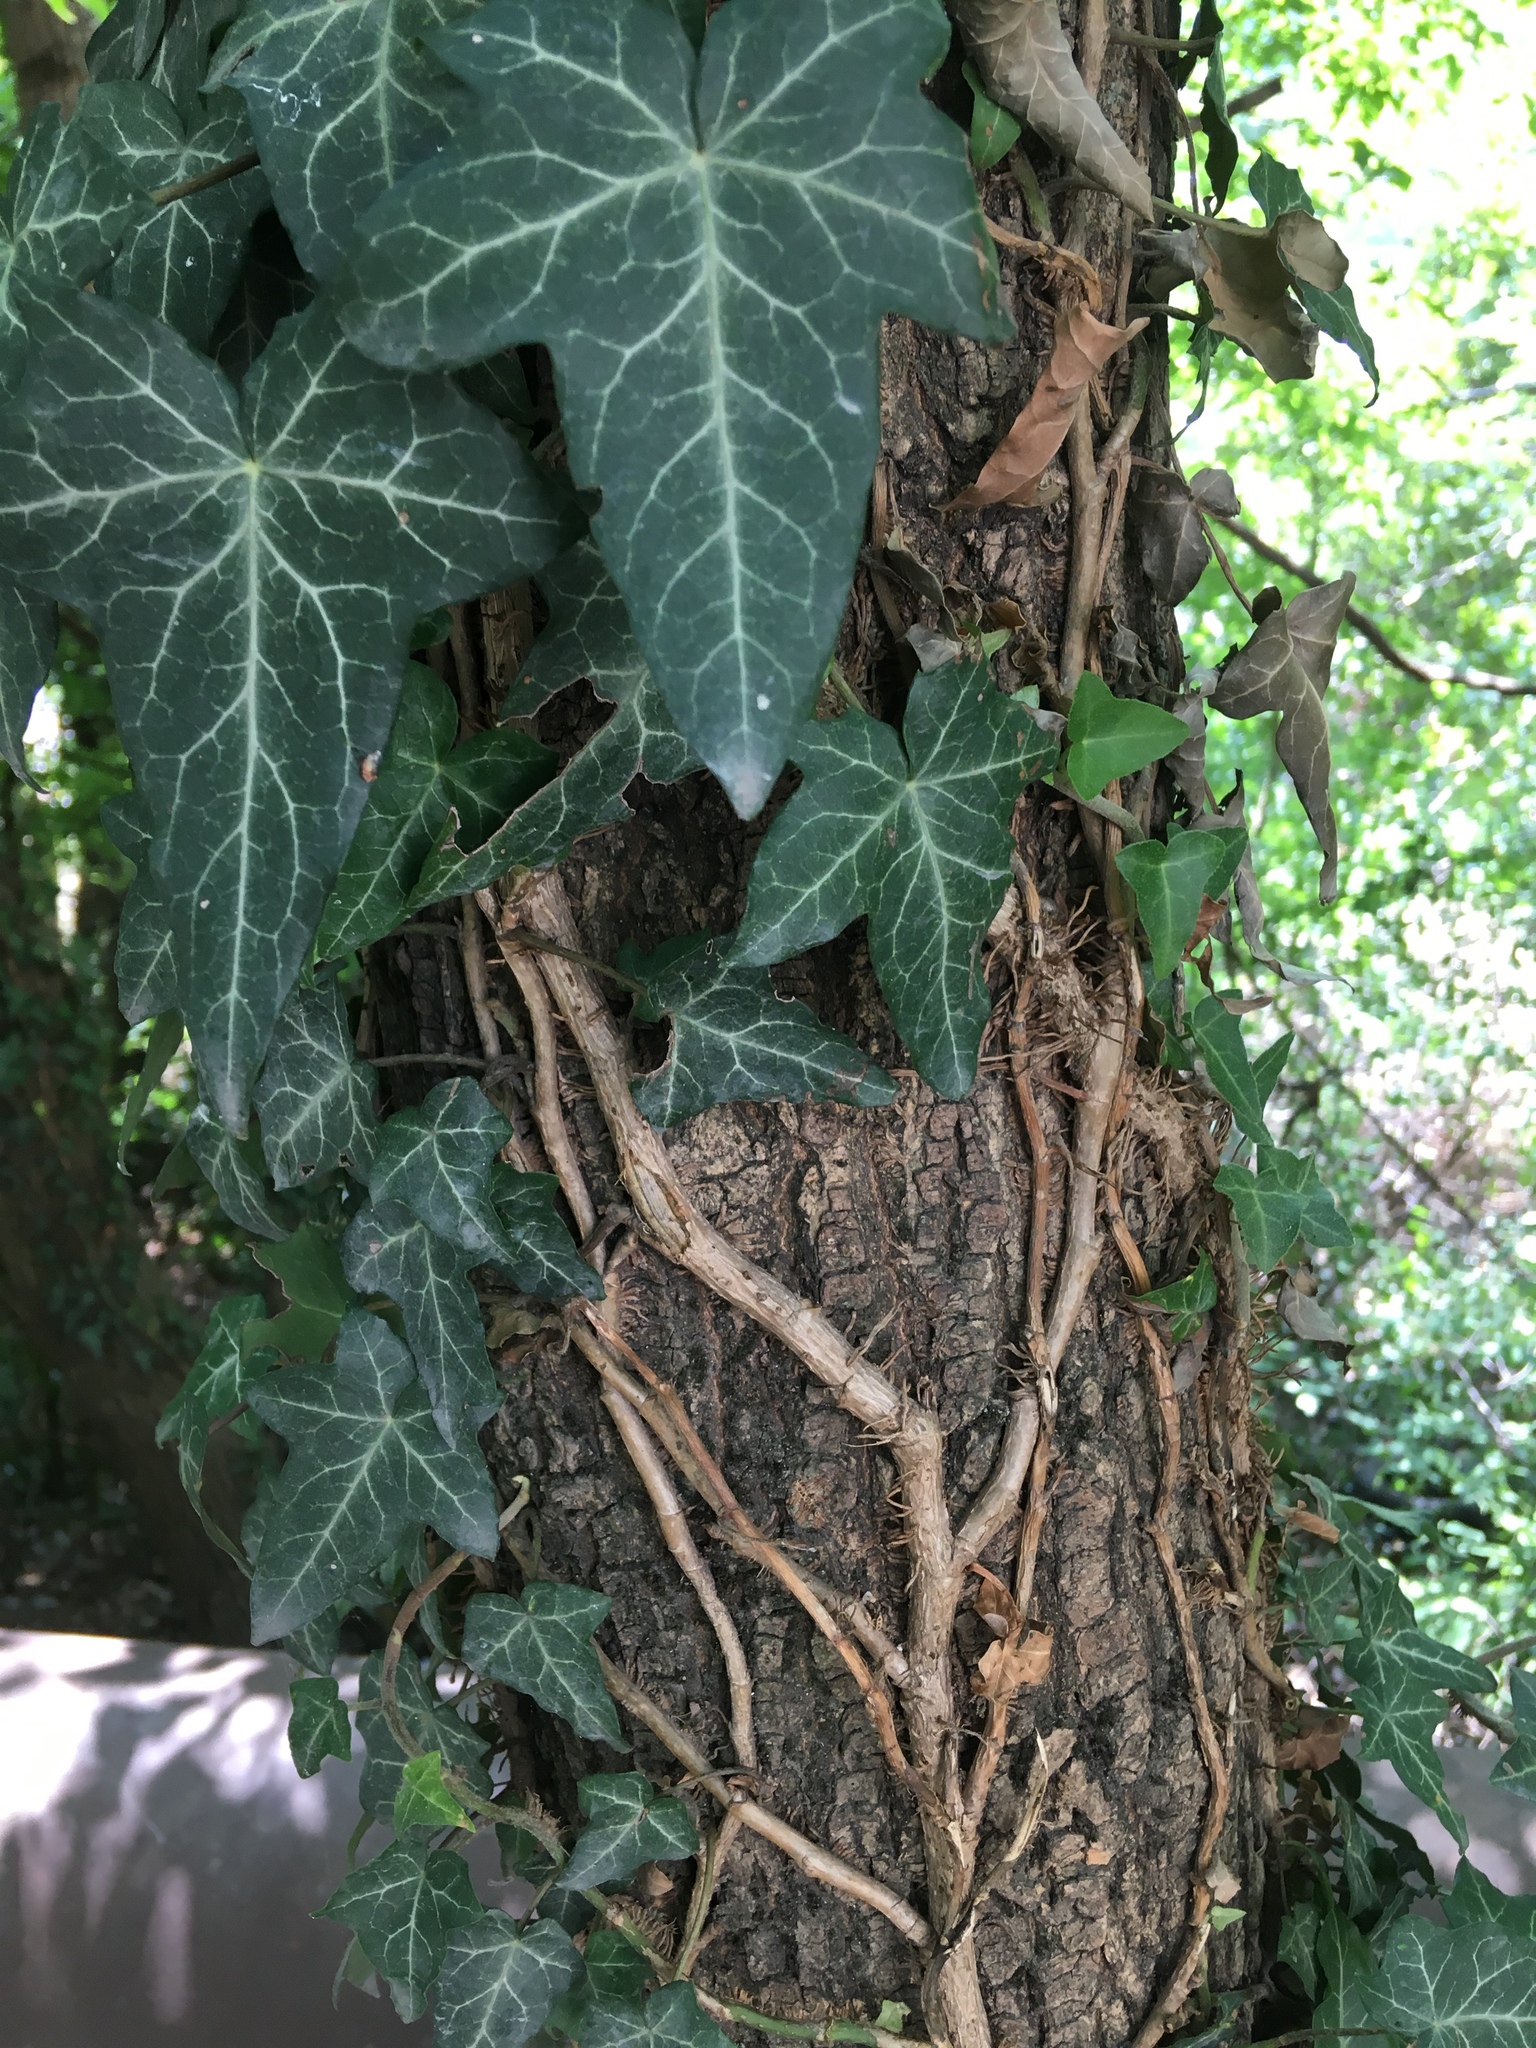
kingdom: Plantae
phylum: Tracheophyta
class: Magnoliopsida
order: Apiales
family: Araliaceae
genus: Hedera
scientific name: Hedera helix
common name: Ivy
